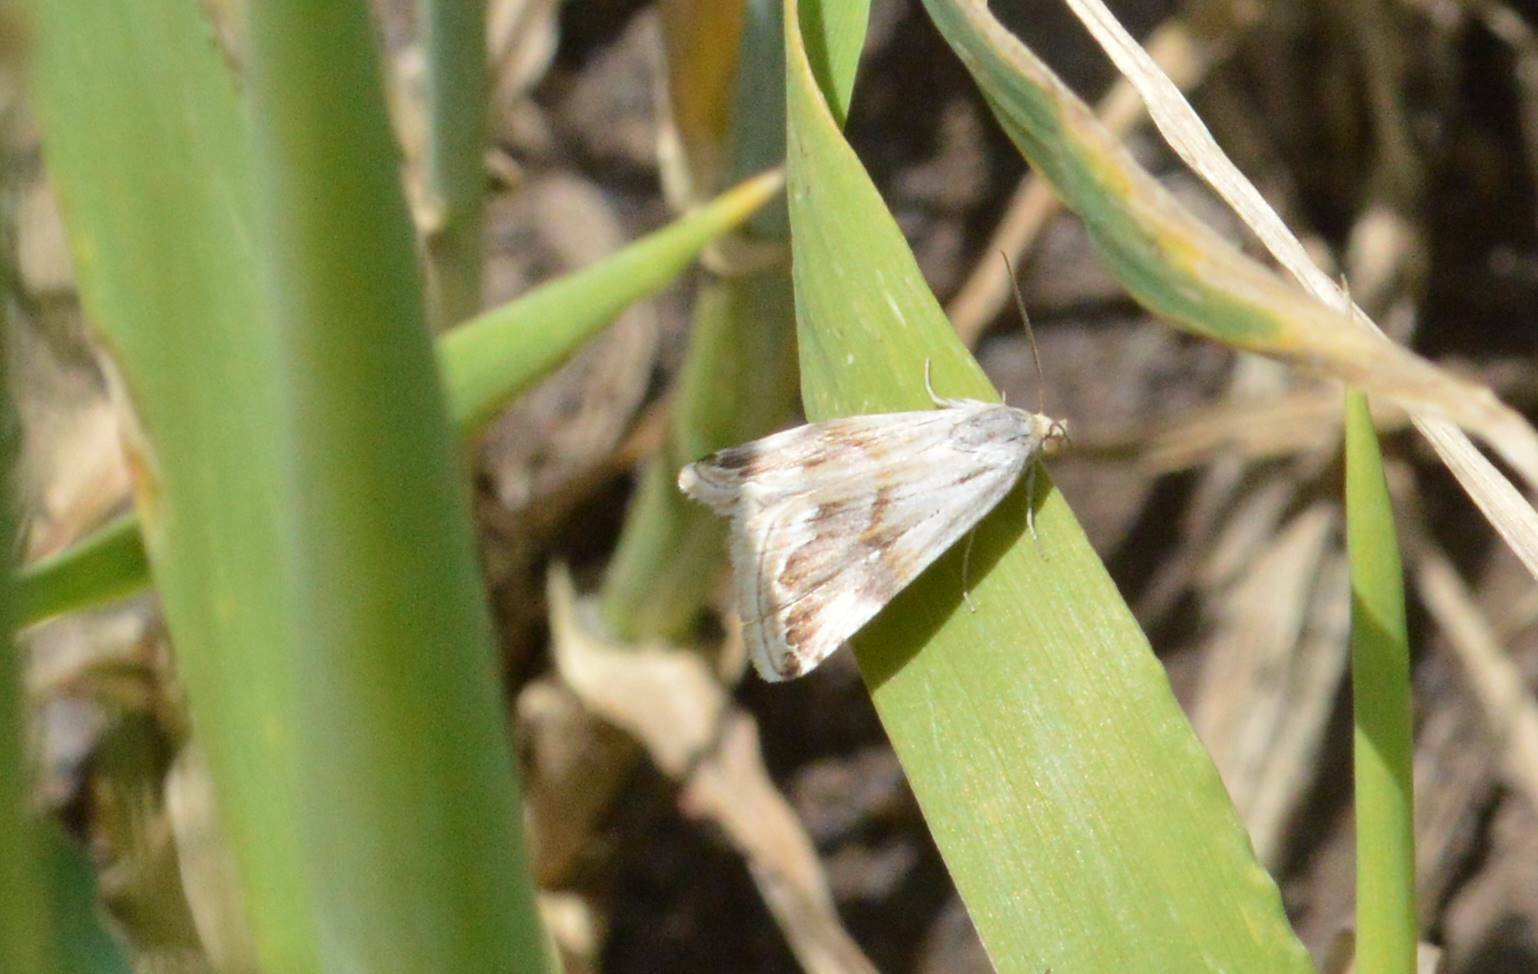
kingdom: Animalia
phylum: Arthropoda
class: Insecta
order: Lepidoptera
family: Noctuidae
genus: Eublemma
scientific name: Eublemma ostrina
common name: Purple marbled
